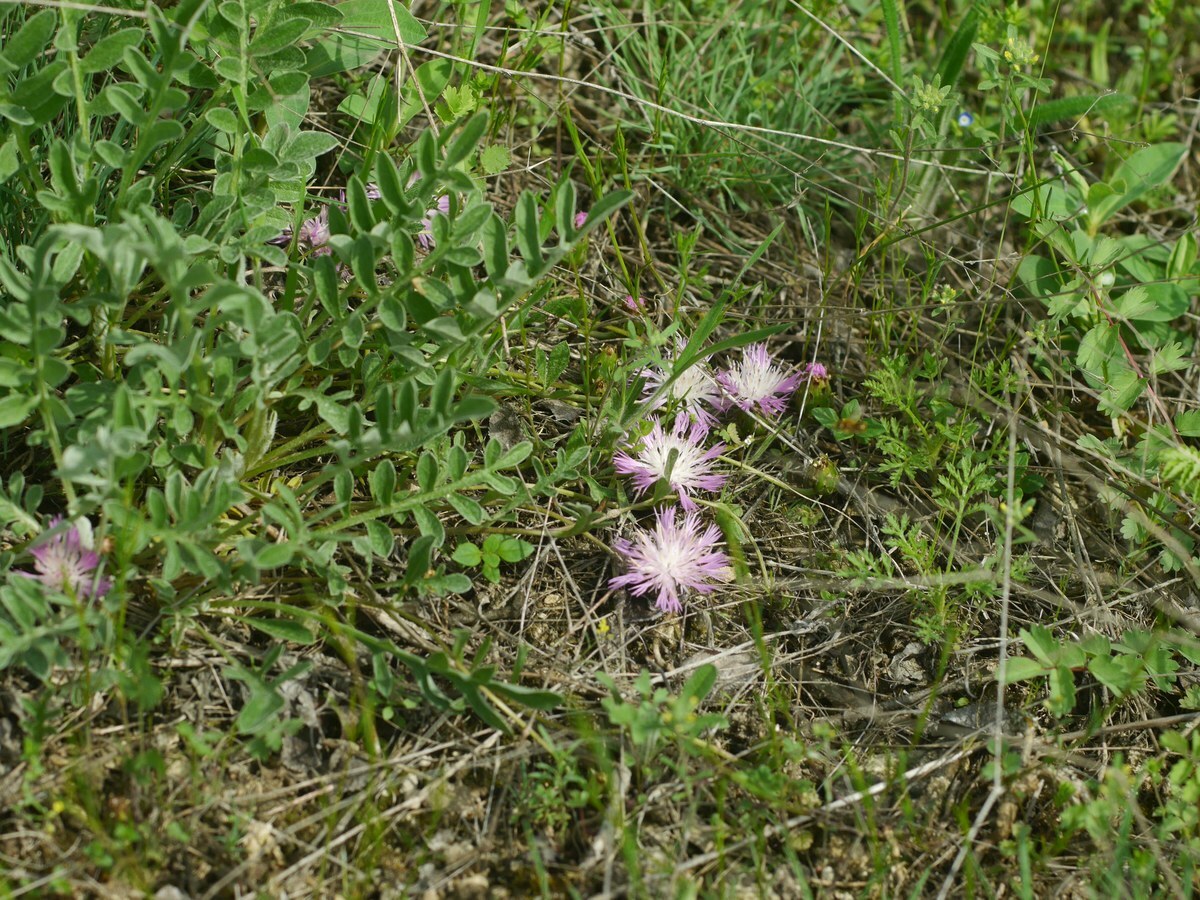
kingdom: Plantae
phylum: Tracheophyta
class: Magnoliopsida
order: Asterales
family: Asteraceae
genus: Psephellus
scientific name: Psephellus marschallianus
